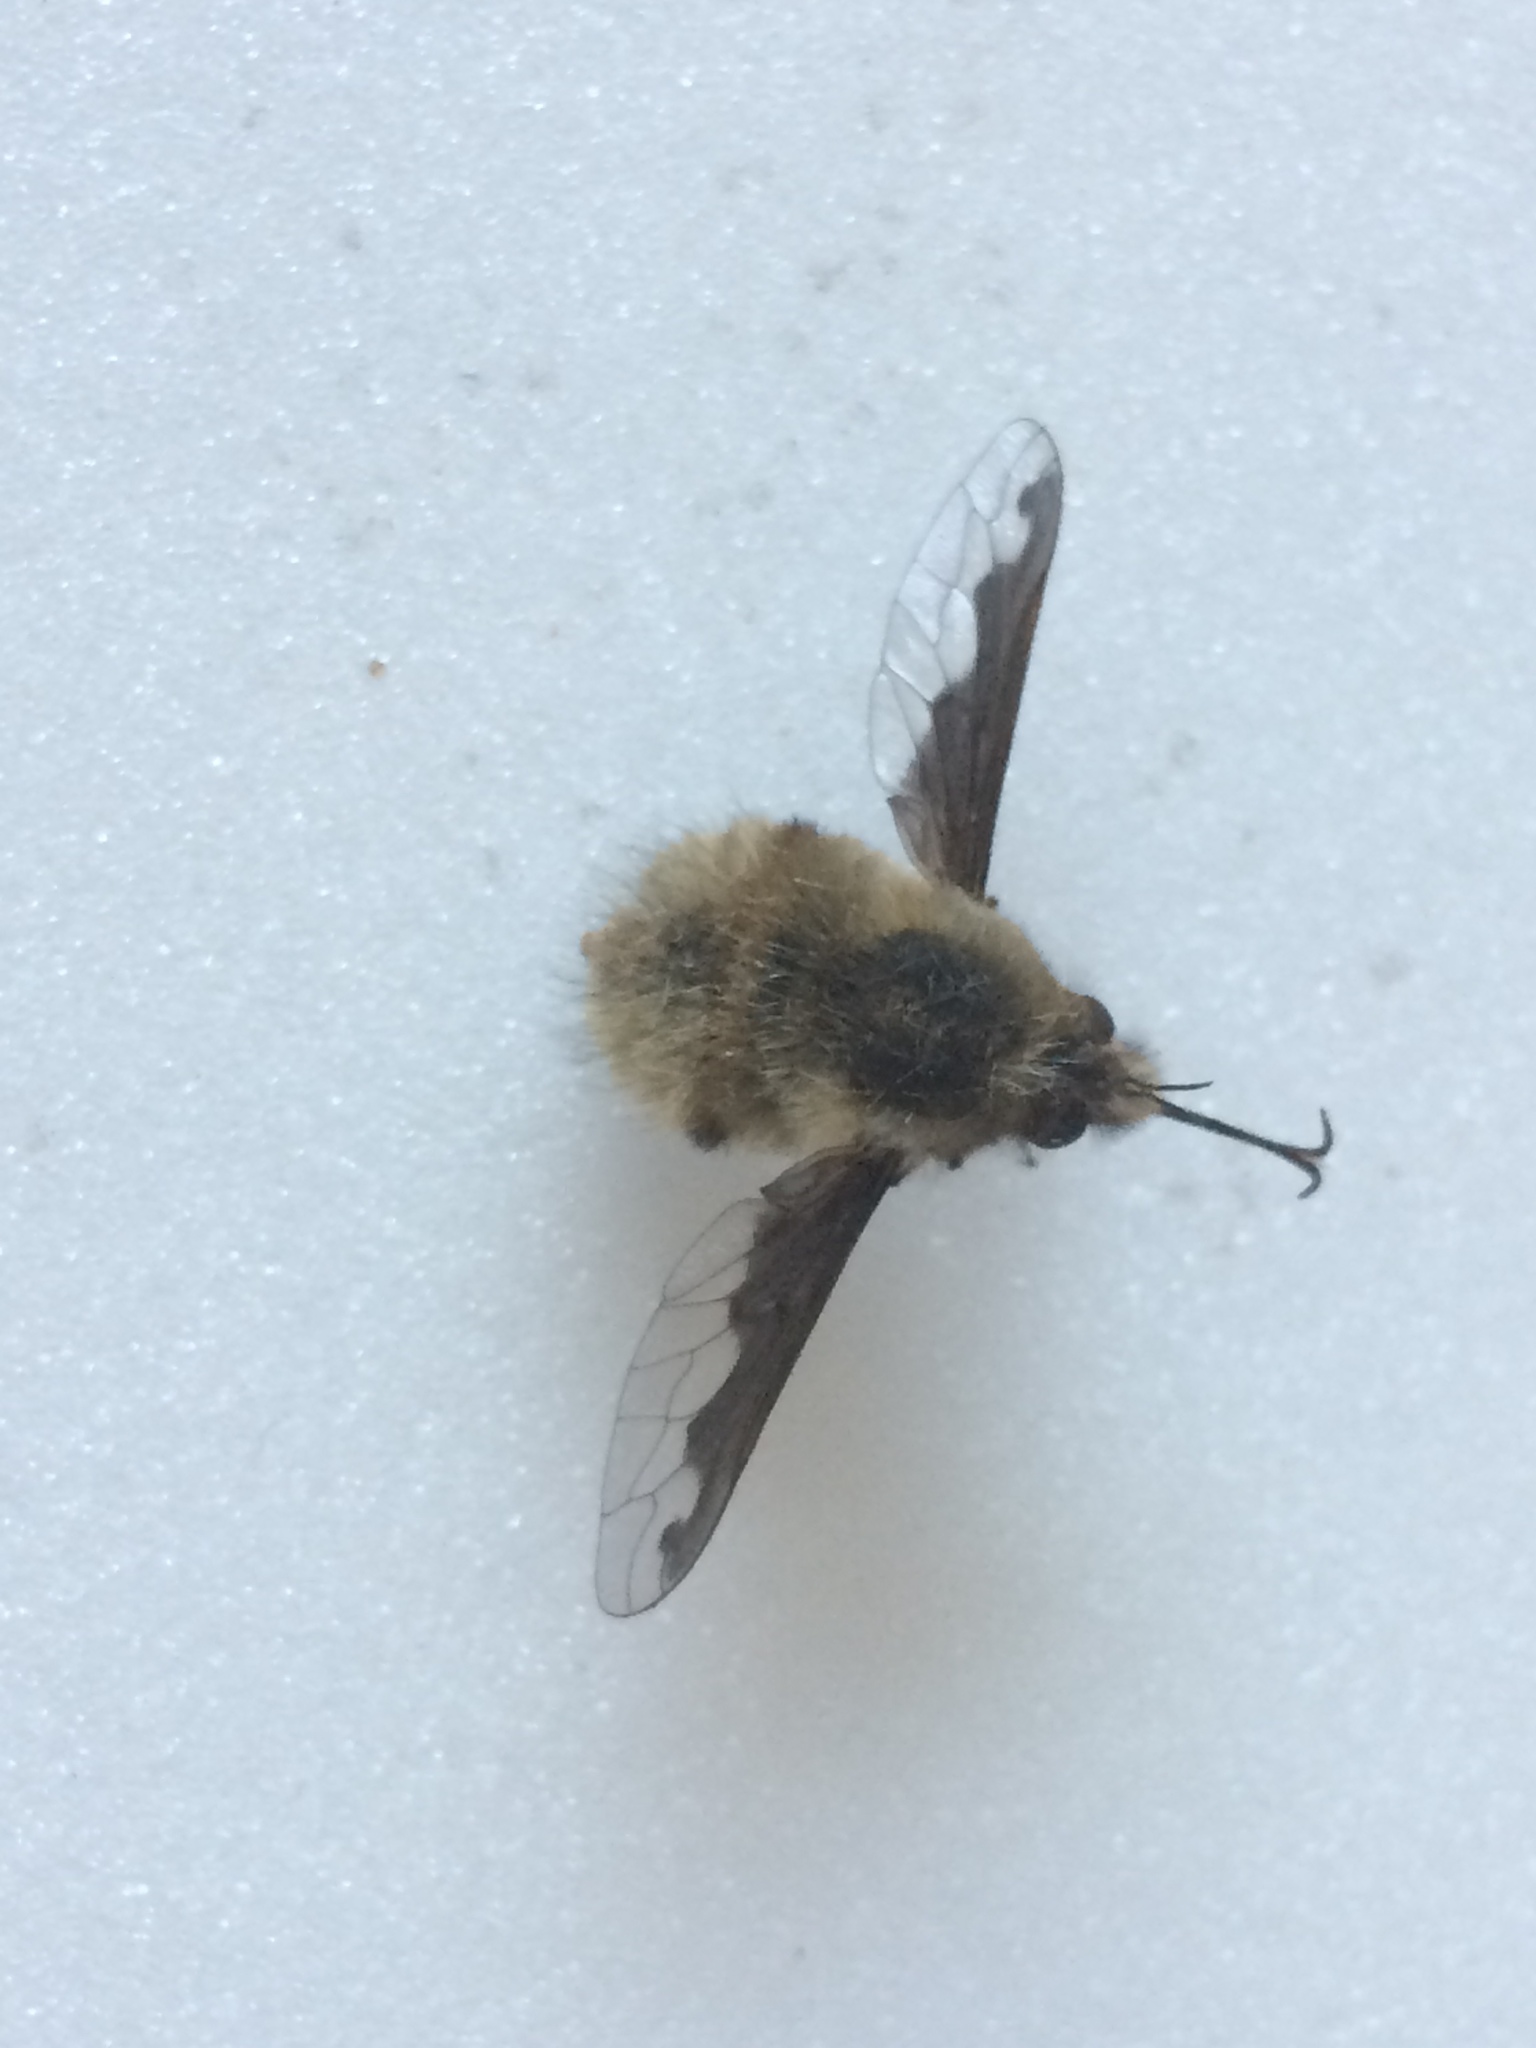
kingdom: Animalia
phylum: Arthropoda
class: Insecta
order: Diptera
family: Bombyliidae
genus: Bombylius
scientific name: Bombylius major
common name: Bee fly
